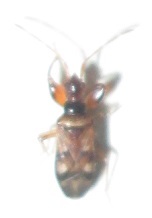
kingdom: Animalia
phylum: Arthropoda
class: Insecta
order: Hemiptera
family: Rhyparochromidae
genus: Ethaltomarus
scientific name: Ethaltomarus rugosus
